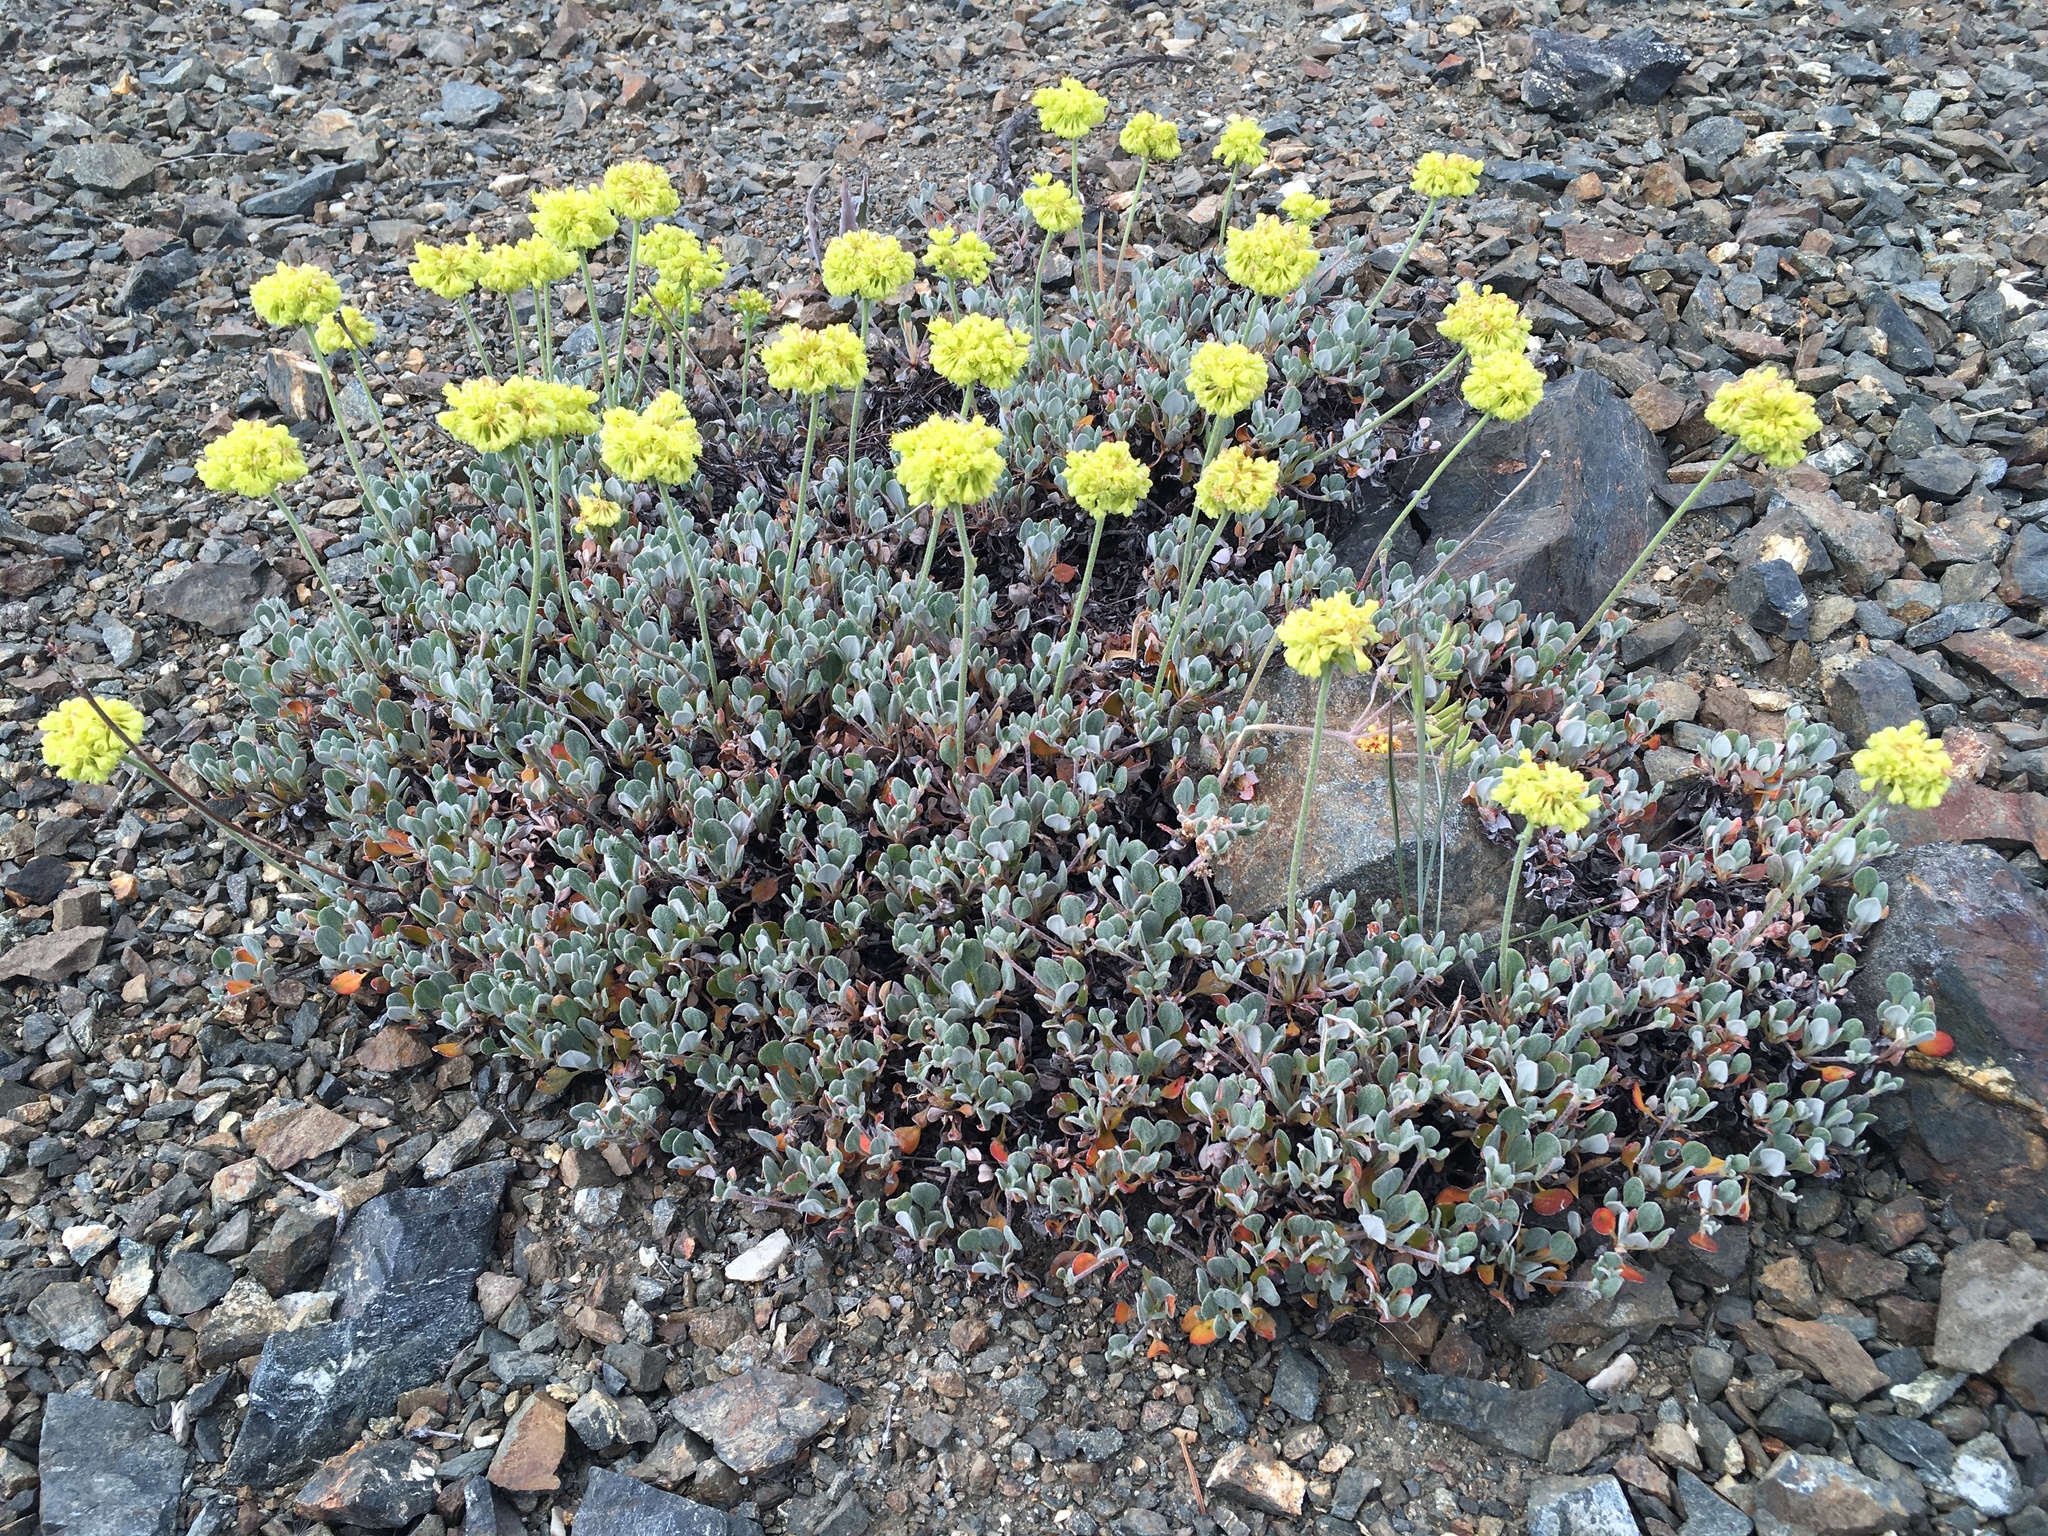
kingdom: Plantae
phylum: Tracheophyta
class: Magnoliopsida
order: Caryophyllales
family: Polygonaceae
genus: Eriogonum
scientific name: Eriogonum diclinum
